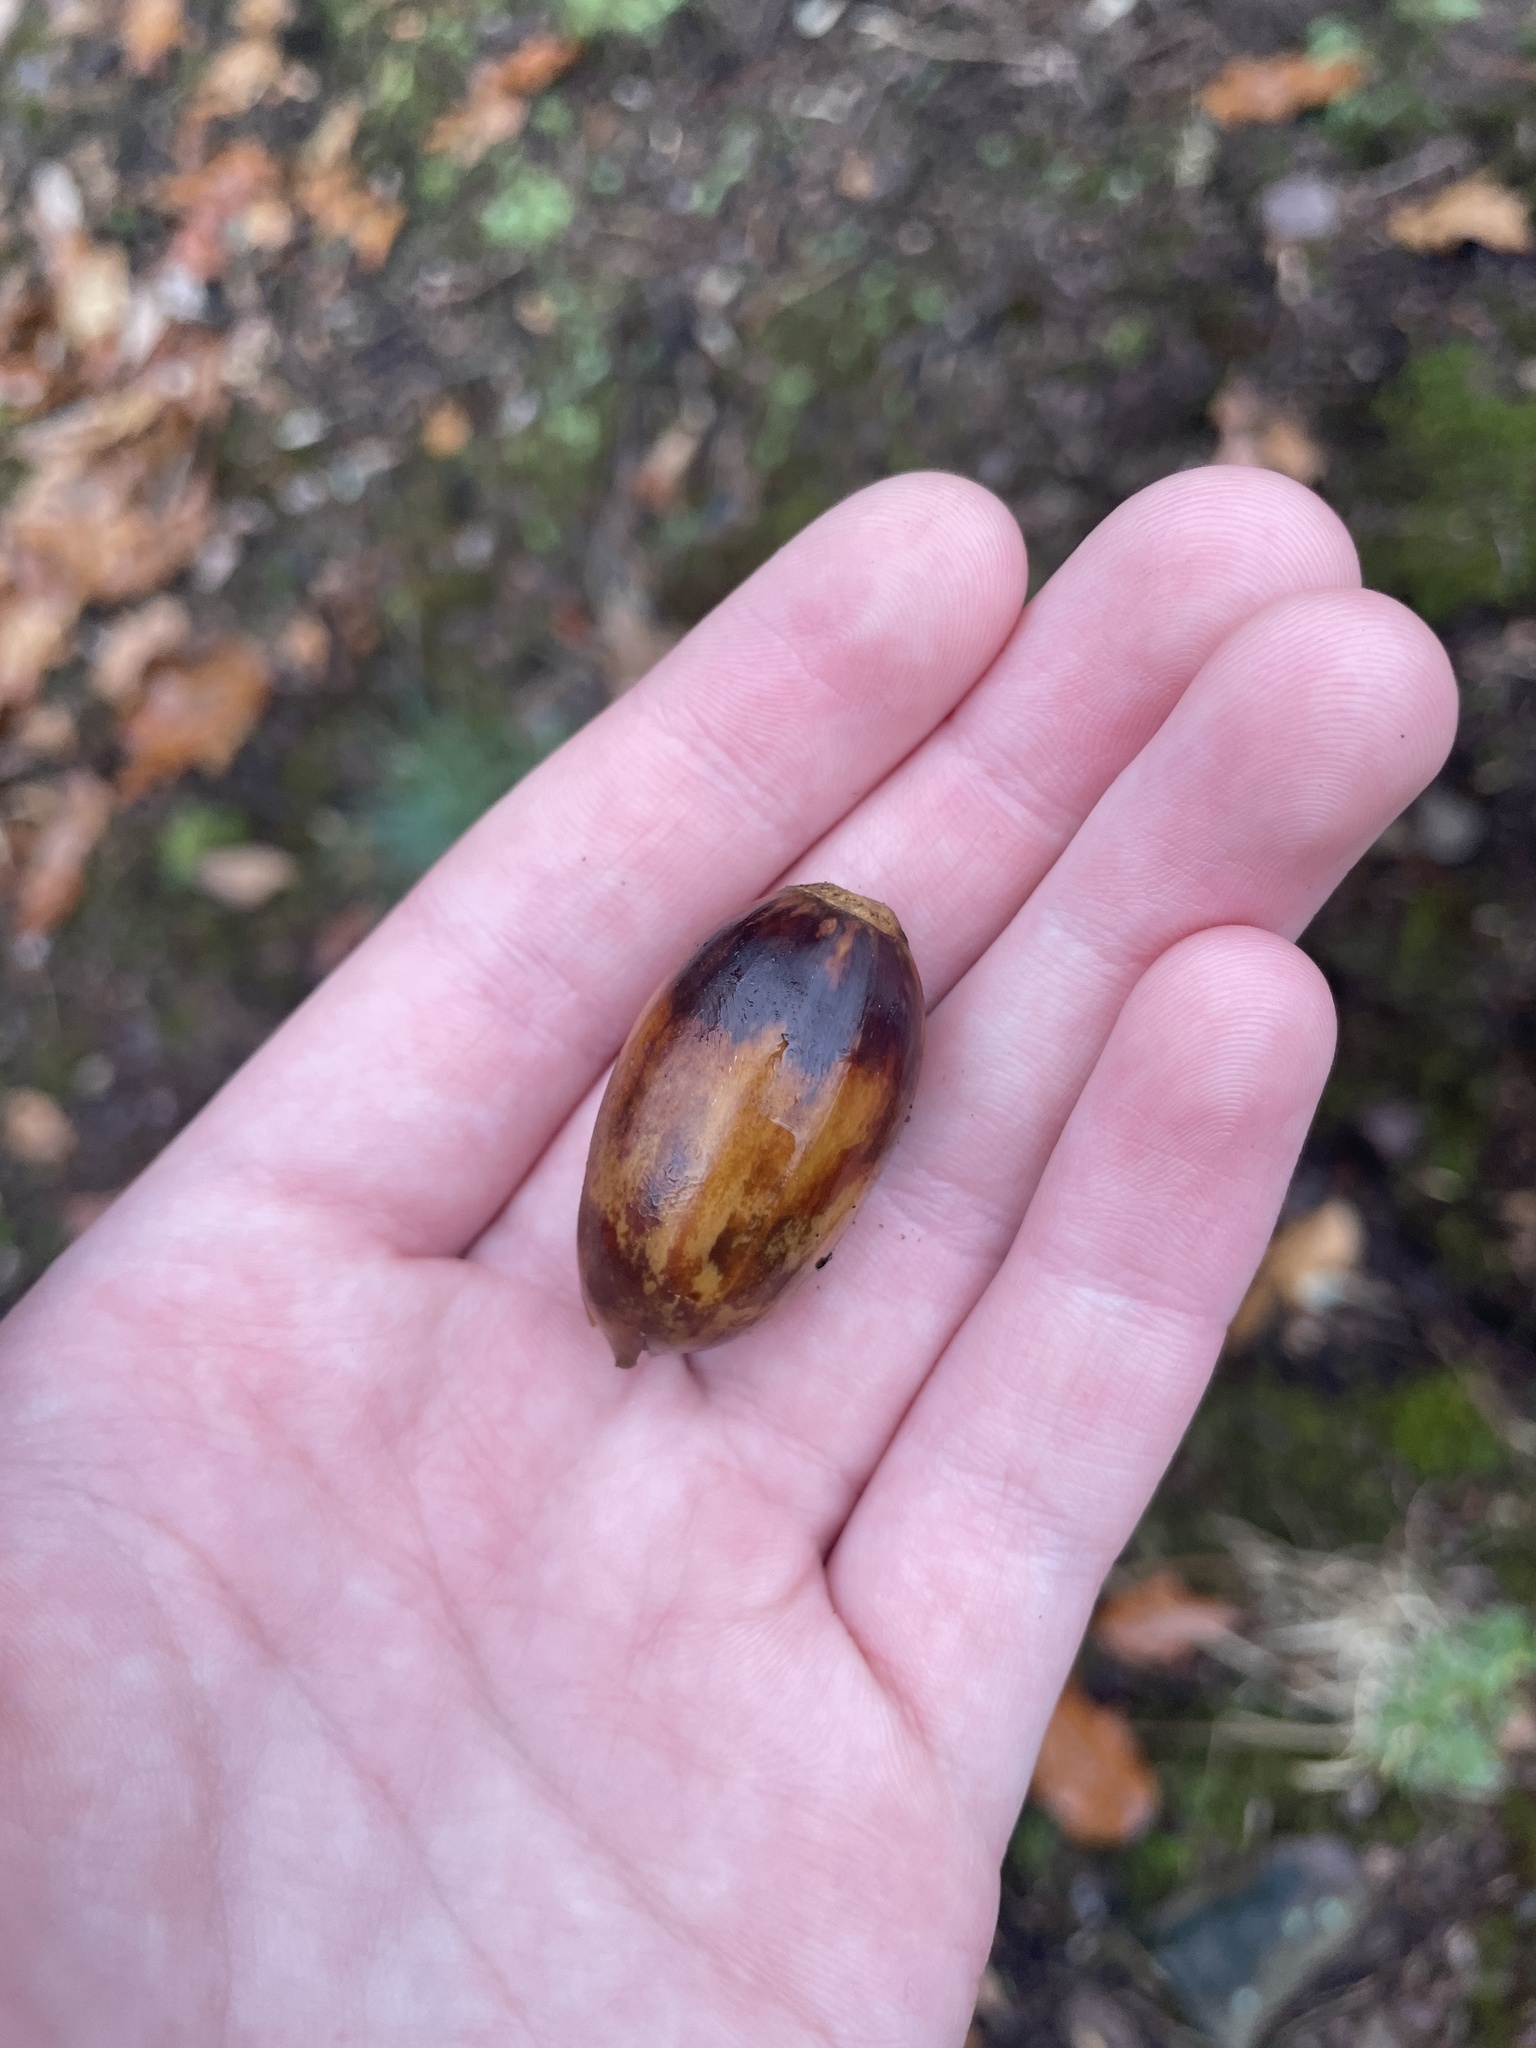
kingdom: Plantae
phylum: Tracheophyta
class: Magnoliopsida
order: Fagales
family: Fagaceae
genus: Quercus
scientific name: Quercus montana
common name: Chestnut oak
